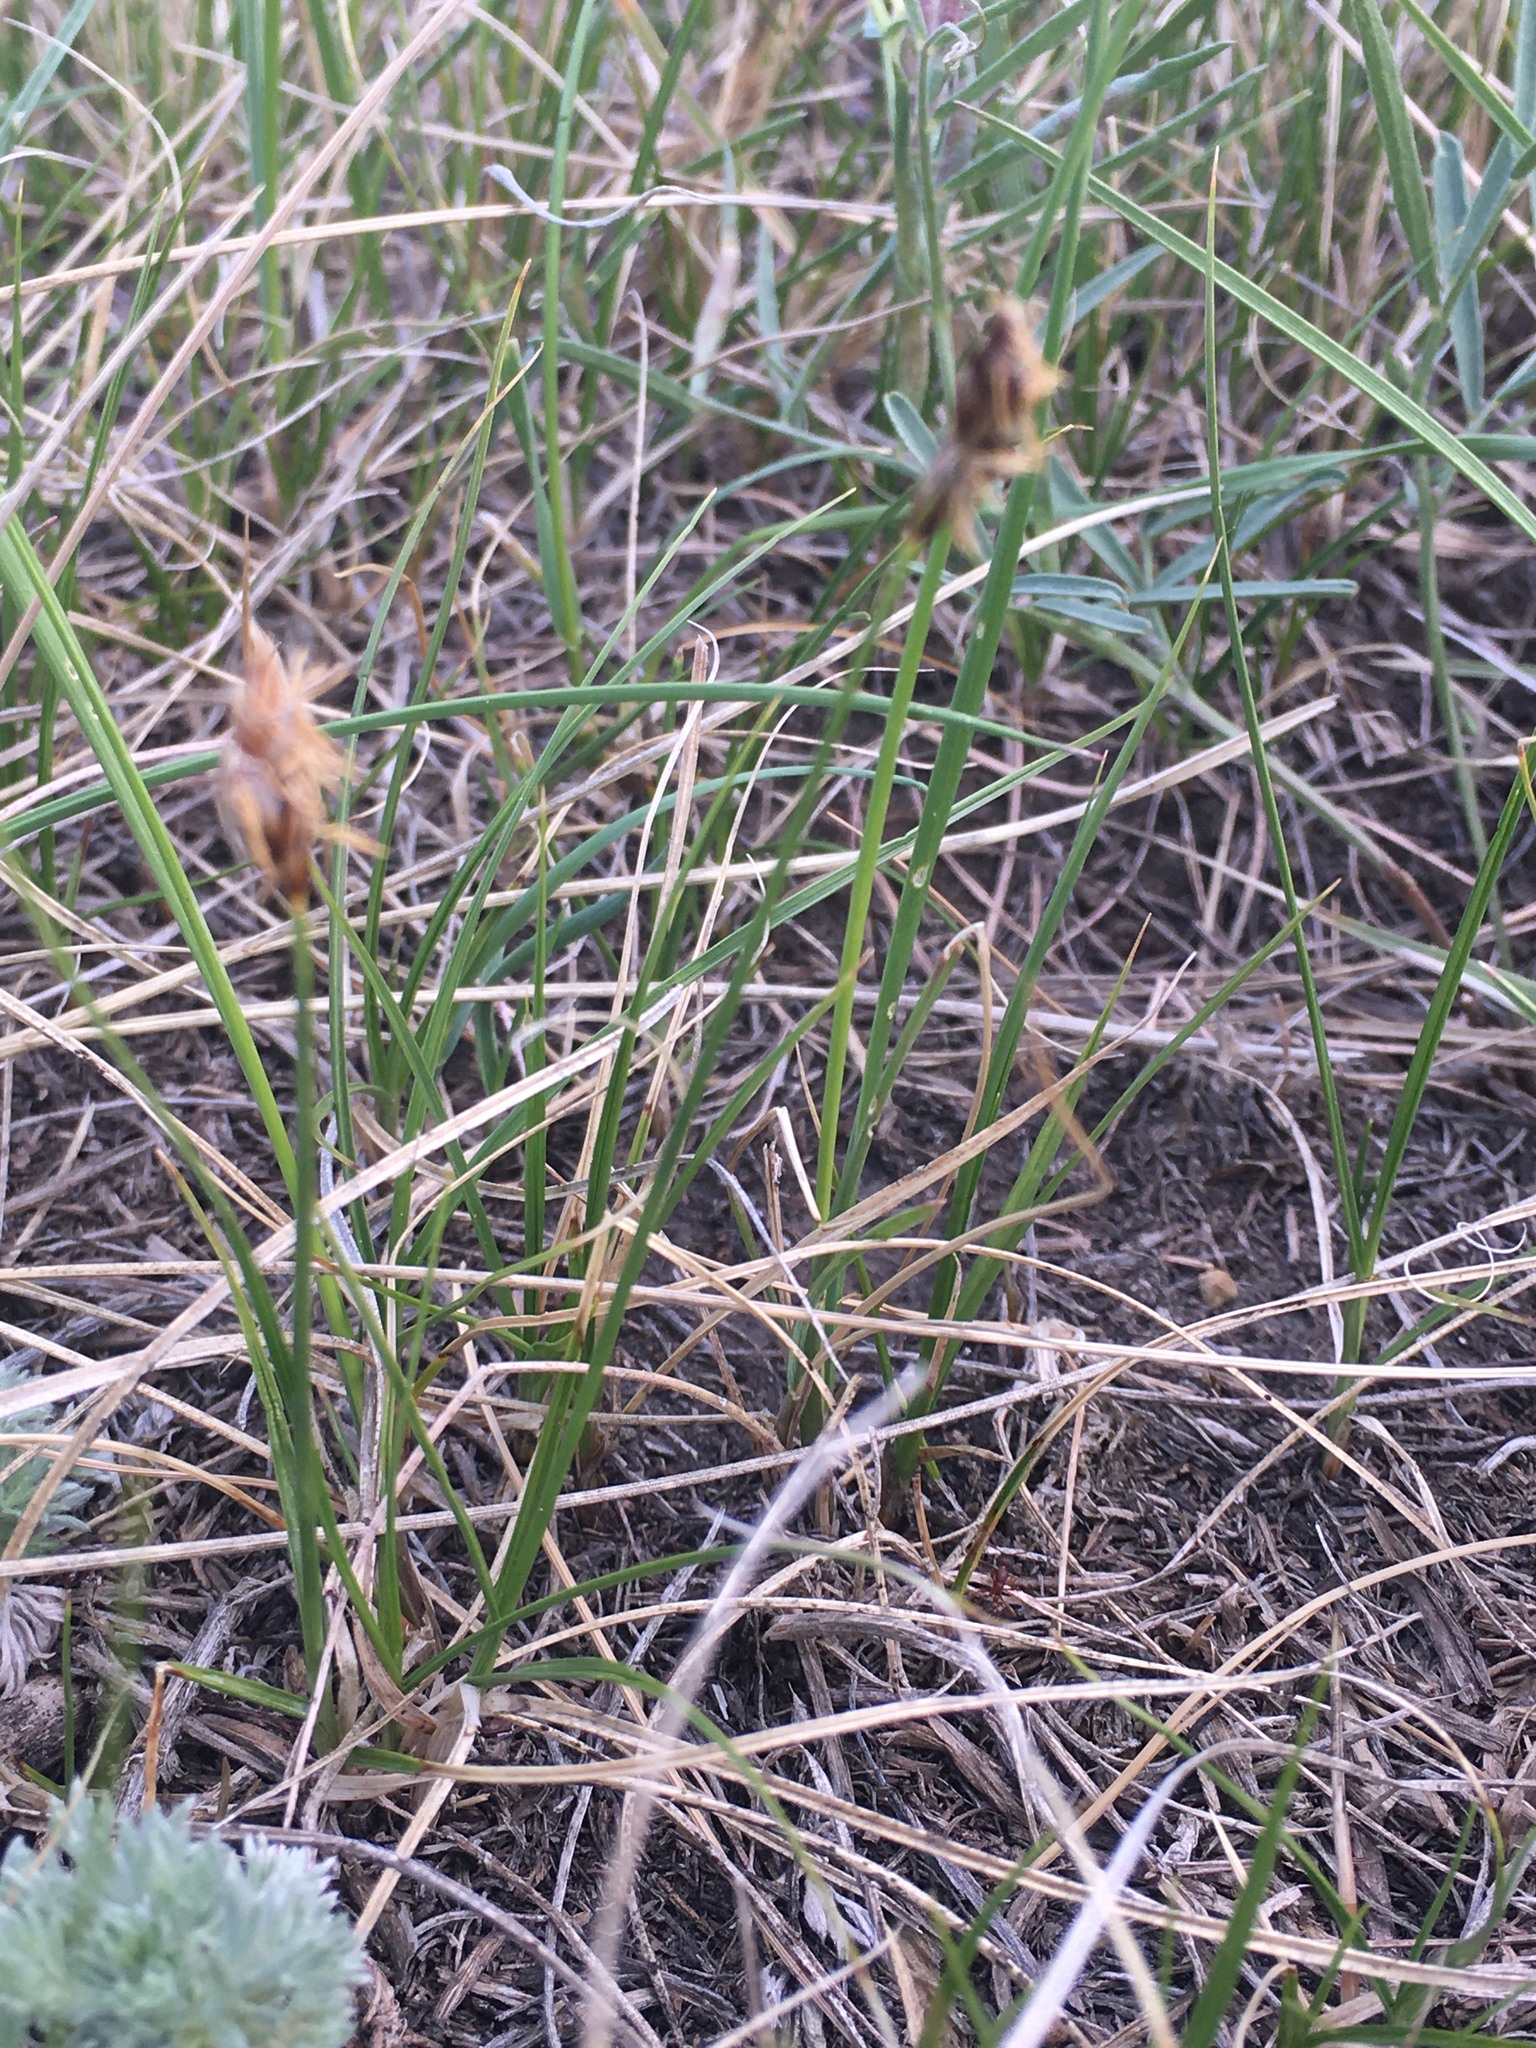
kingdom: Plantae
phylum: Tracheophyta
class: Liliopsida
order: Poales
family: Cyperaceae
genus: Carex
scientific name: Carex duriuscula
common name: Involute-leaved sedge
